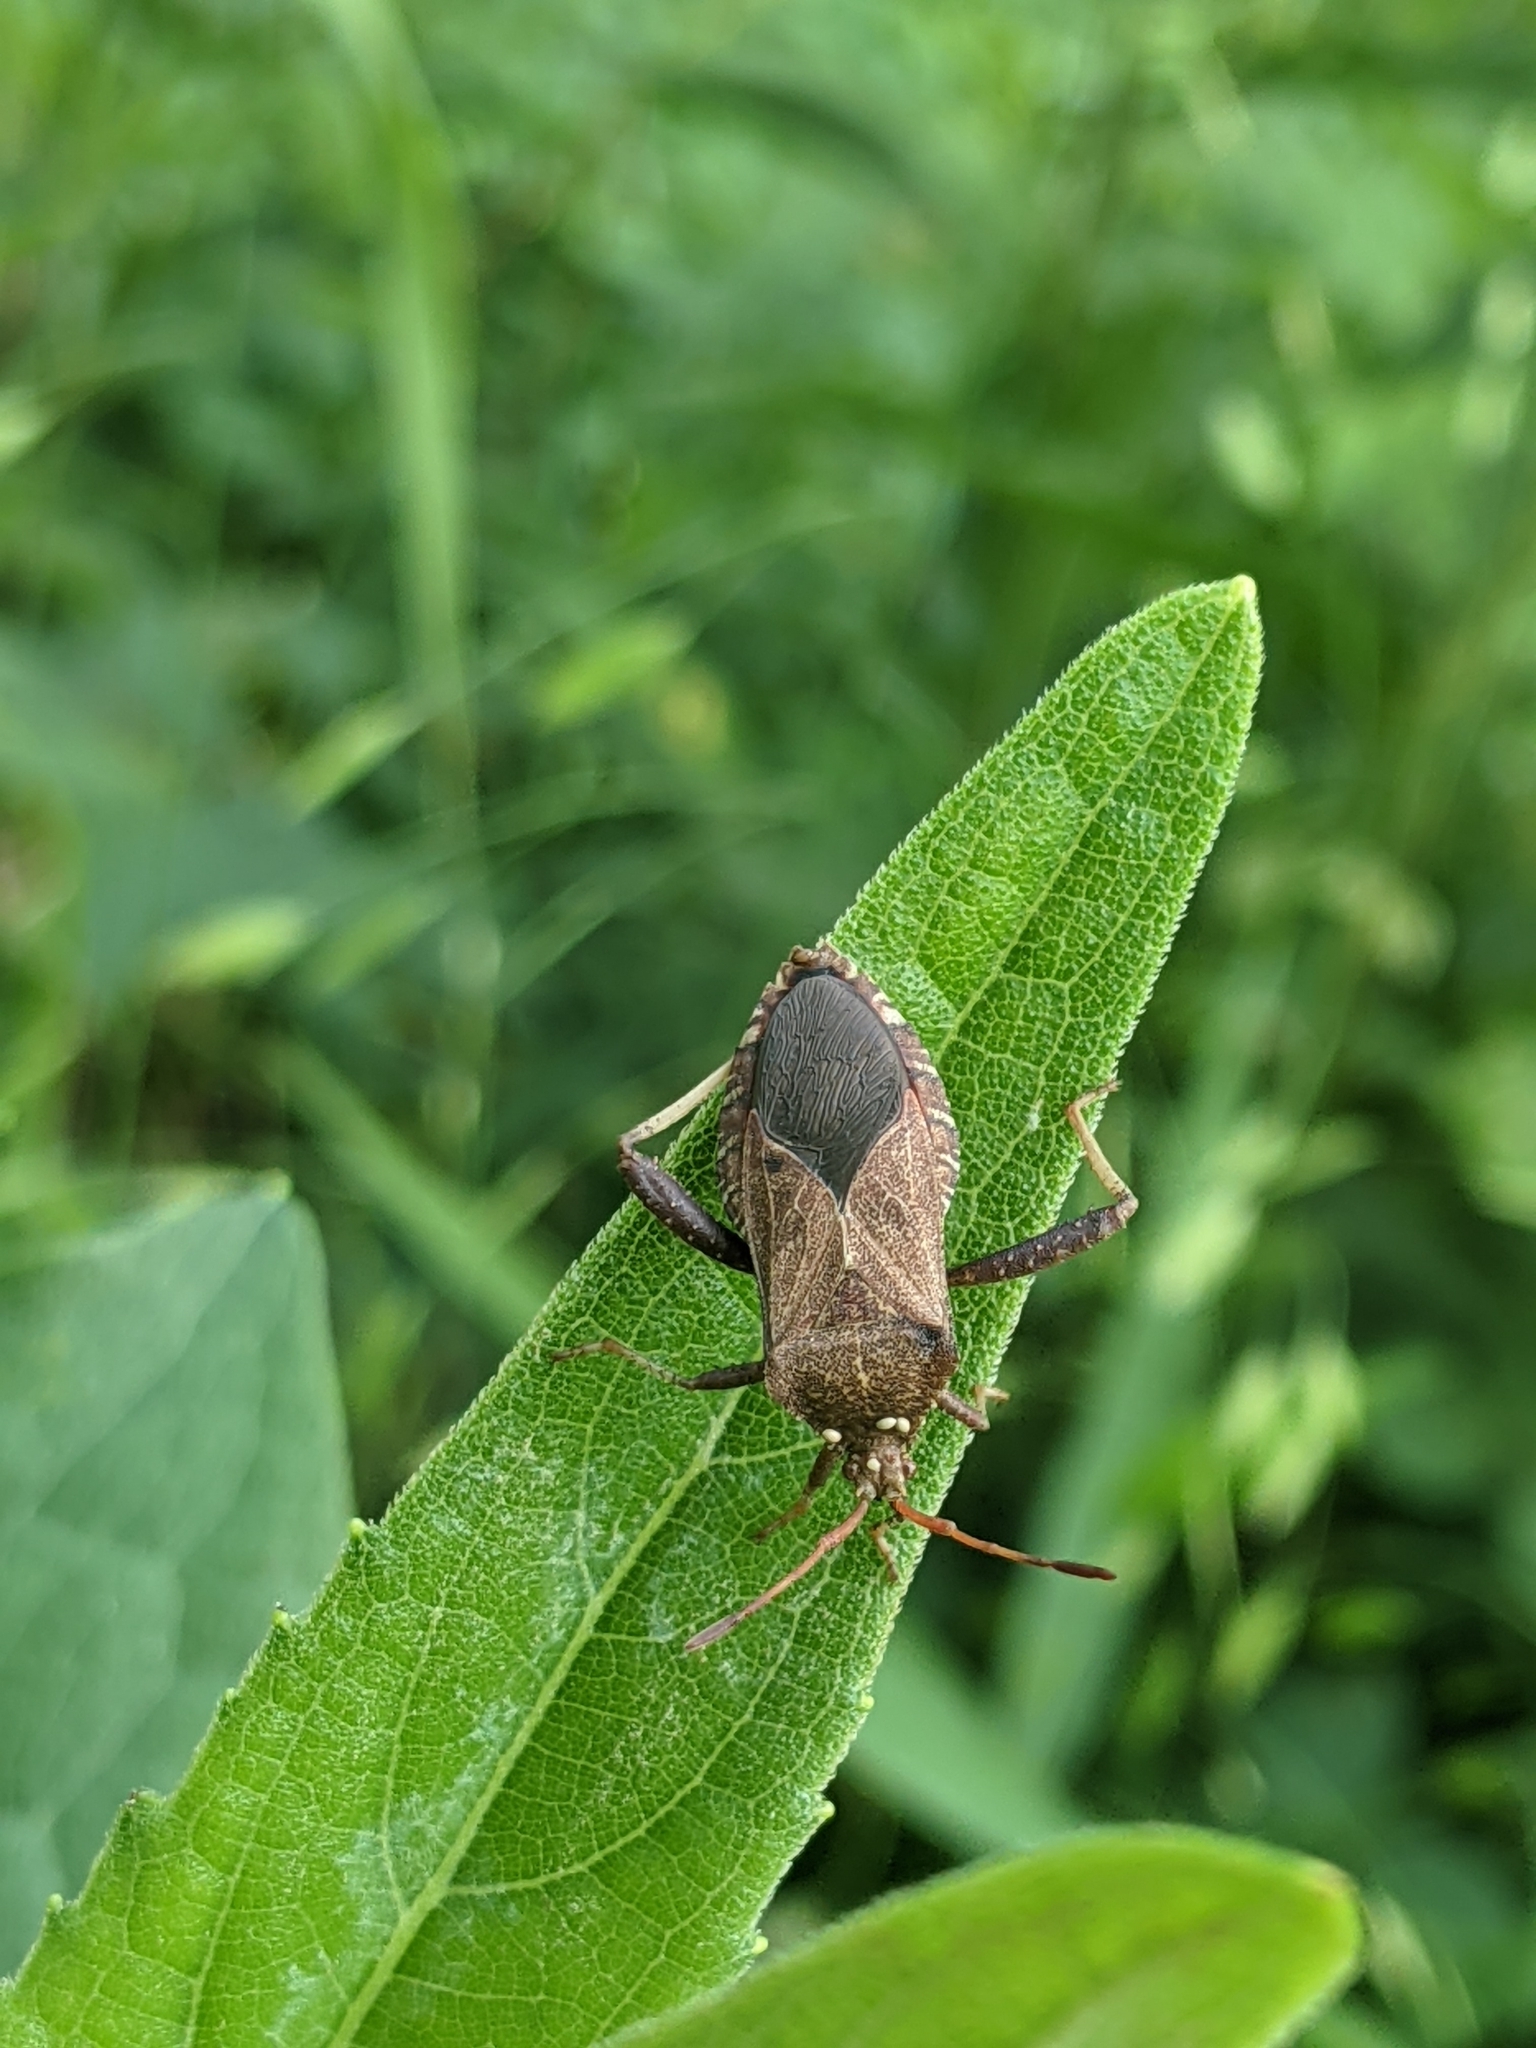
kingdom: Animalia
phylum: Arthropoda
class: Insecta
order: Hemiptera
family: Coreidae
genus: Euthochtha
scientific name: Euthochtha galeator
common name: Helmeted squash bug
